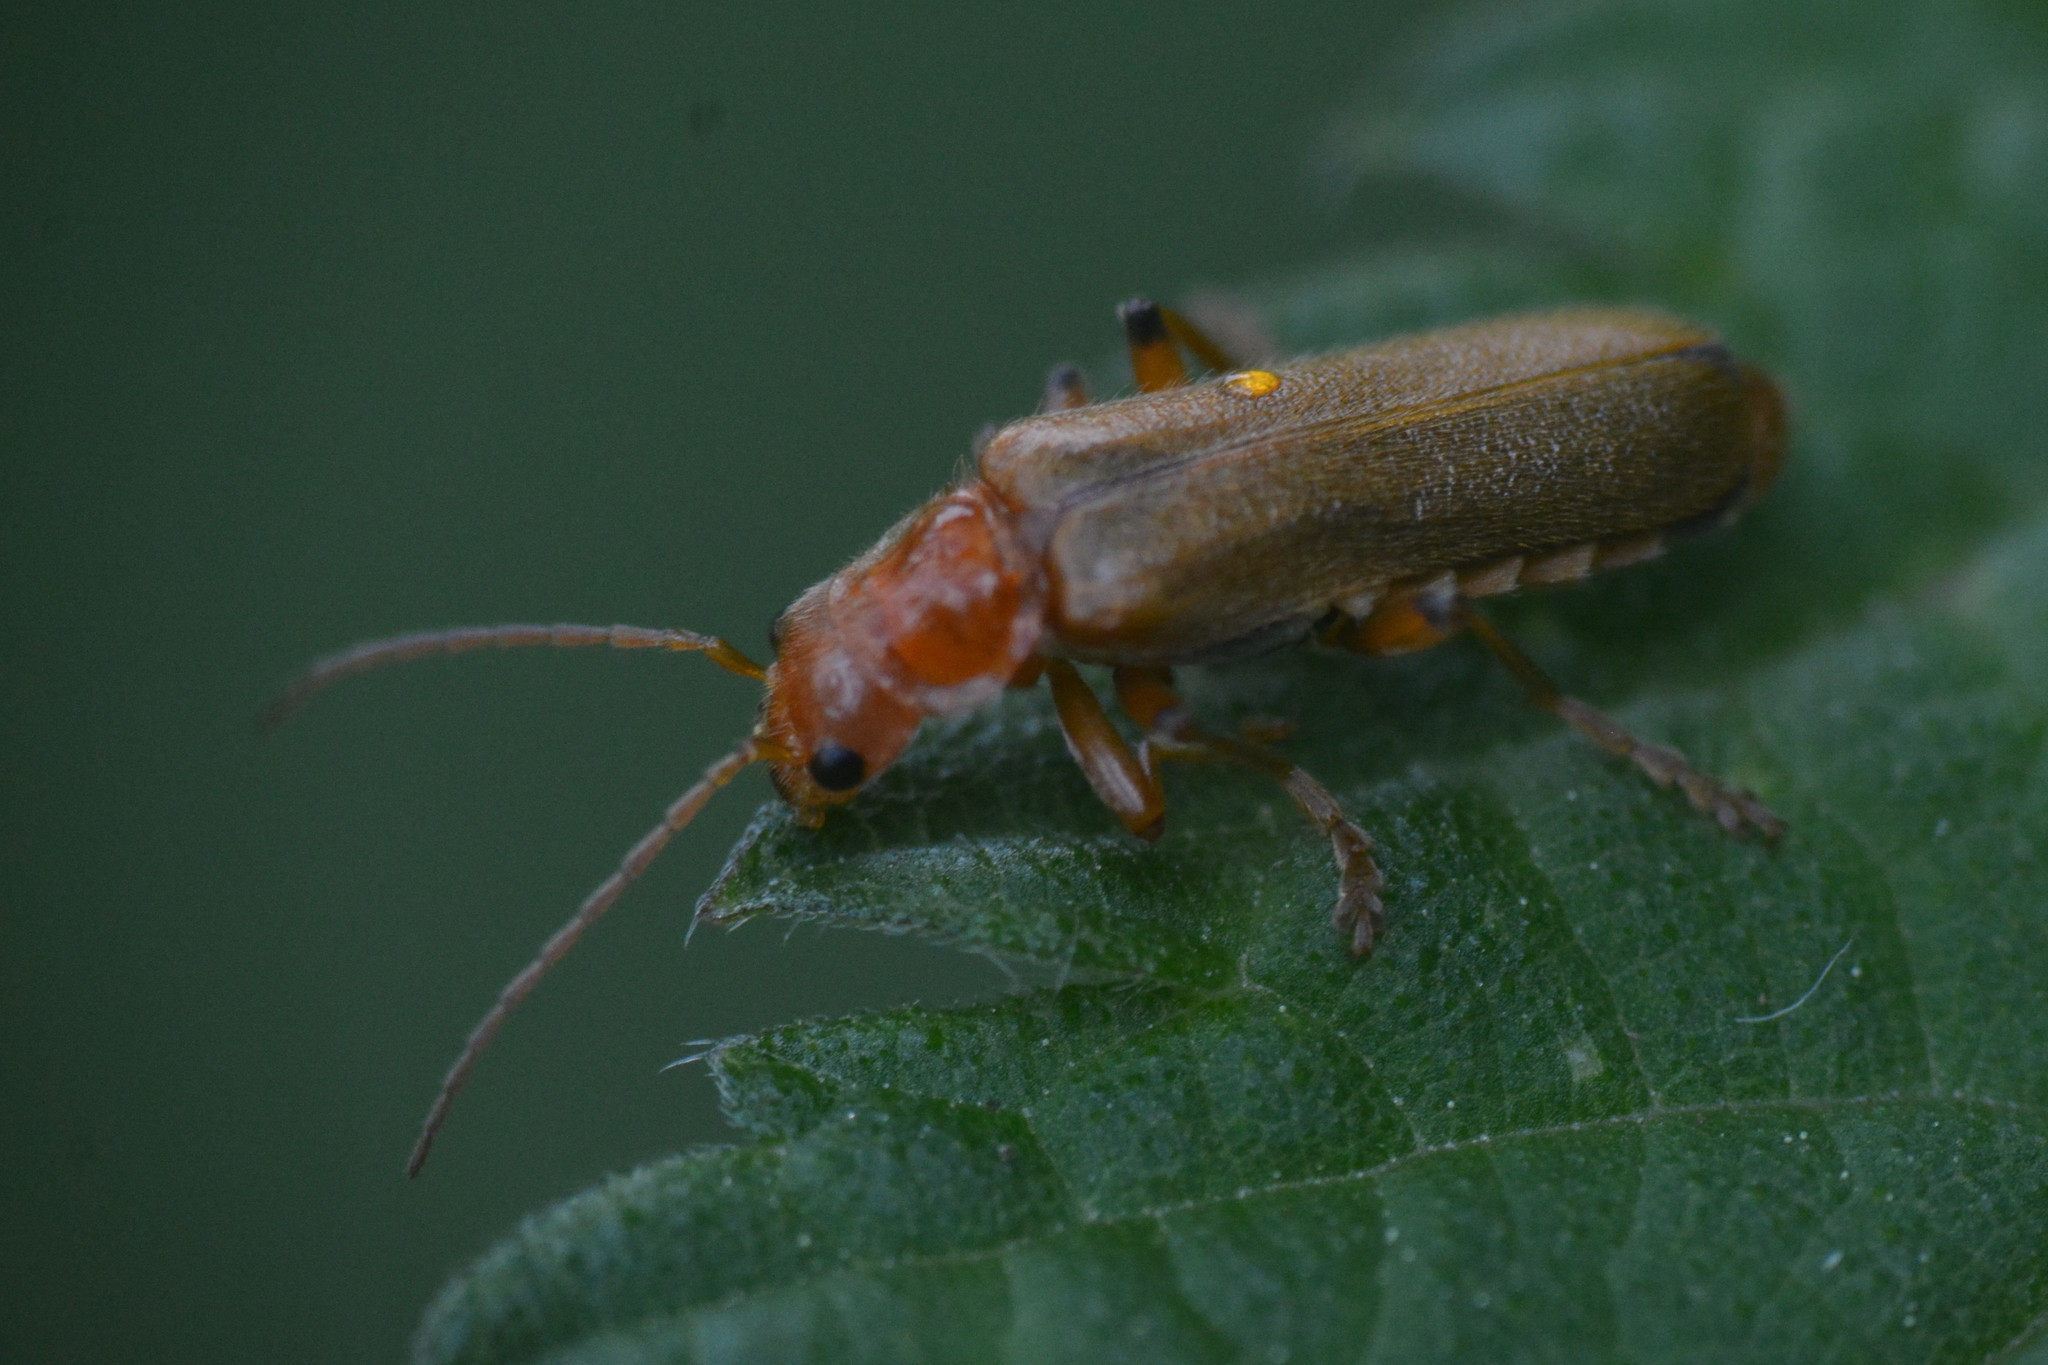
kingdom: Animalia
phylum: Arthropoda
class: Insecta
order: Coleoptera
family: Cantharidae
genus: Cantharis
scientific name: Cantharis cryptica
